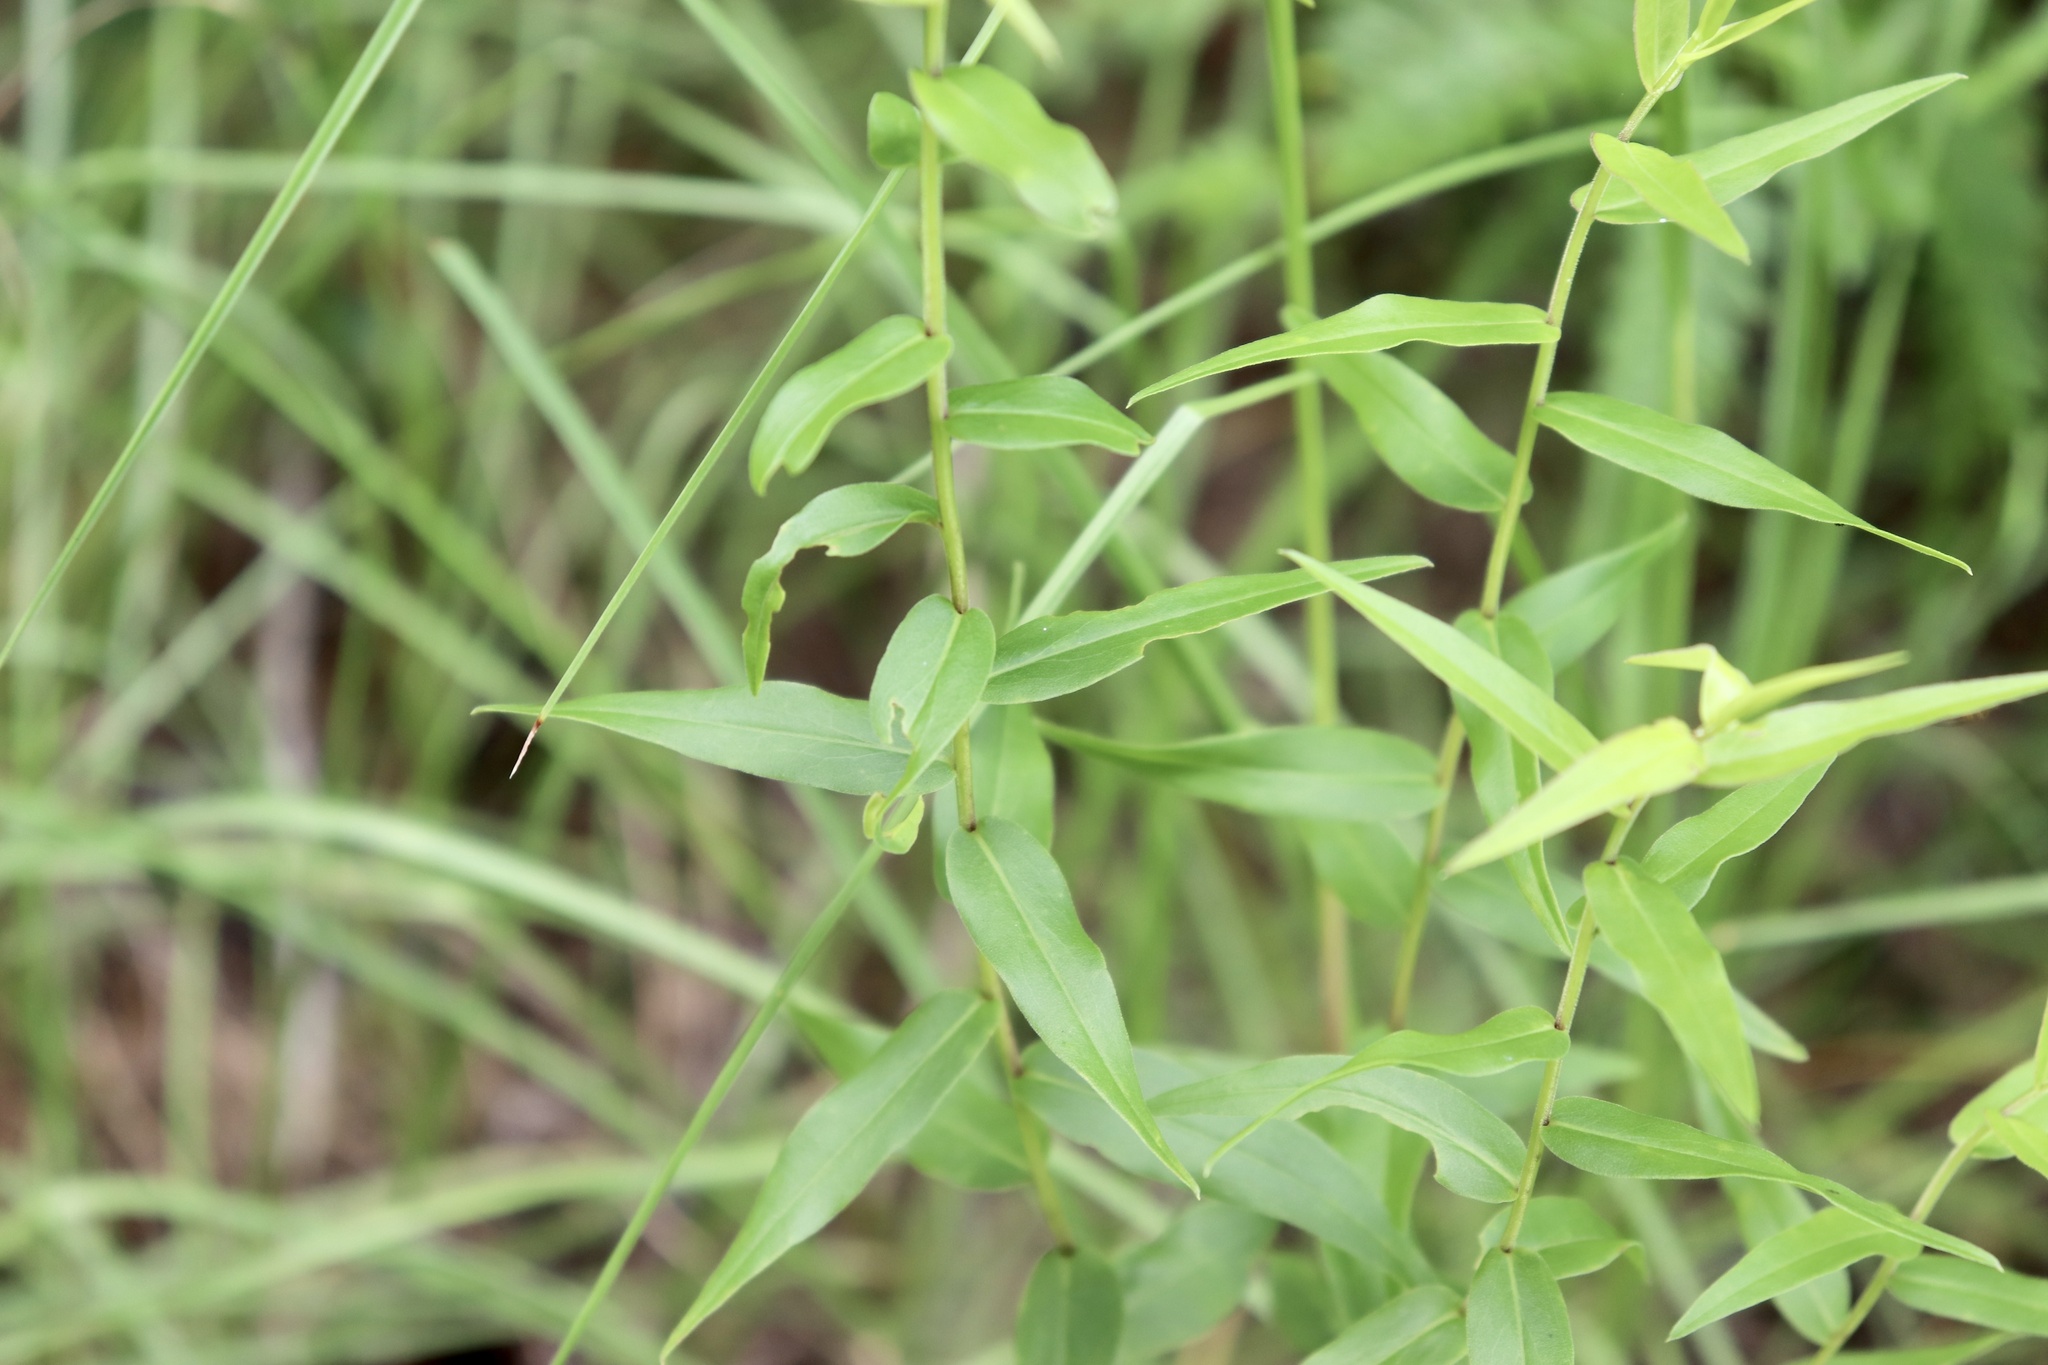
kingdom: Plantae
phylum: Tracheophyta
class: Magnoliopsida
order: Asterales
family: Asteraceae
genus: Solidago
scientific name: Solidago chapmanii
